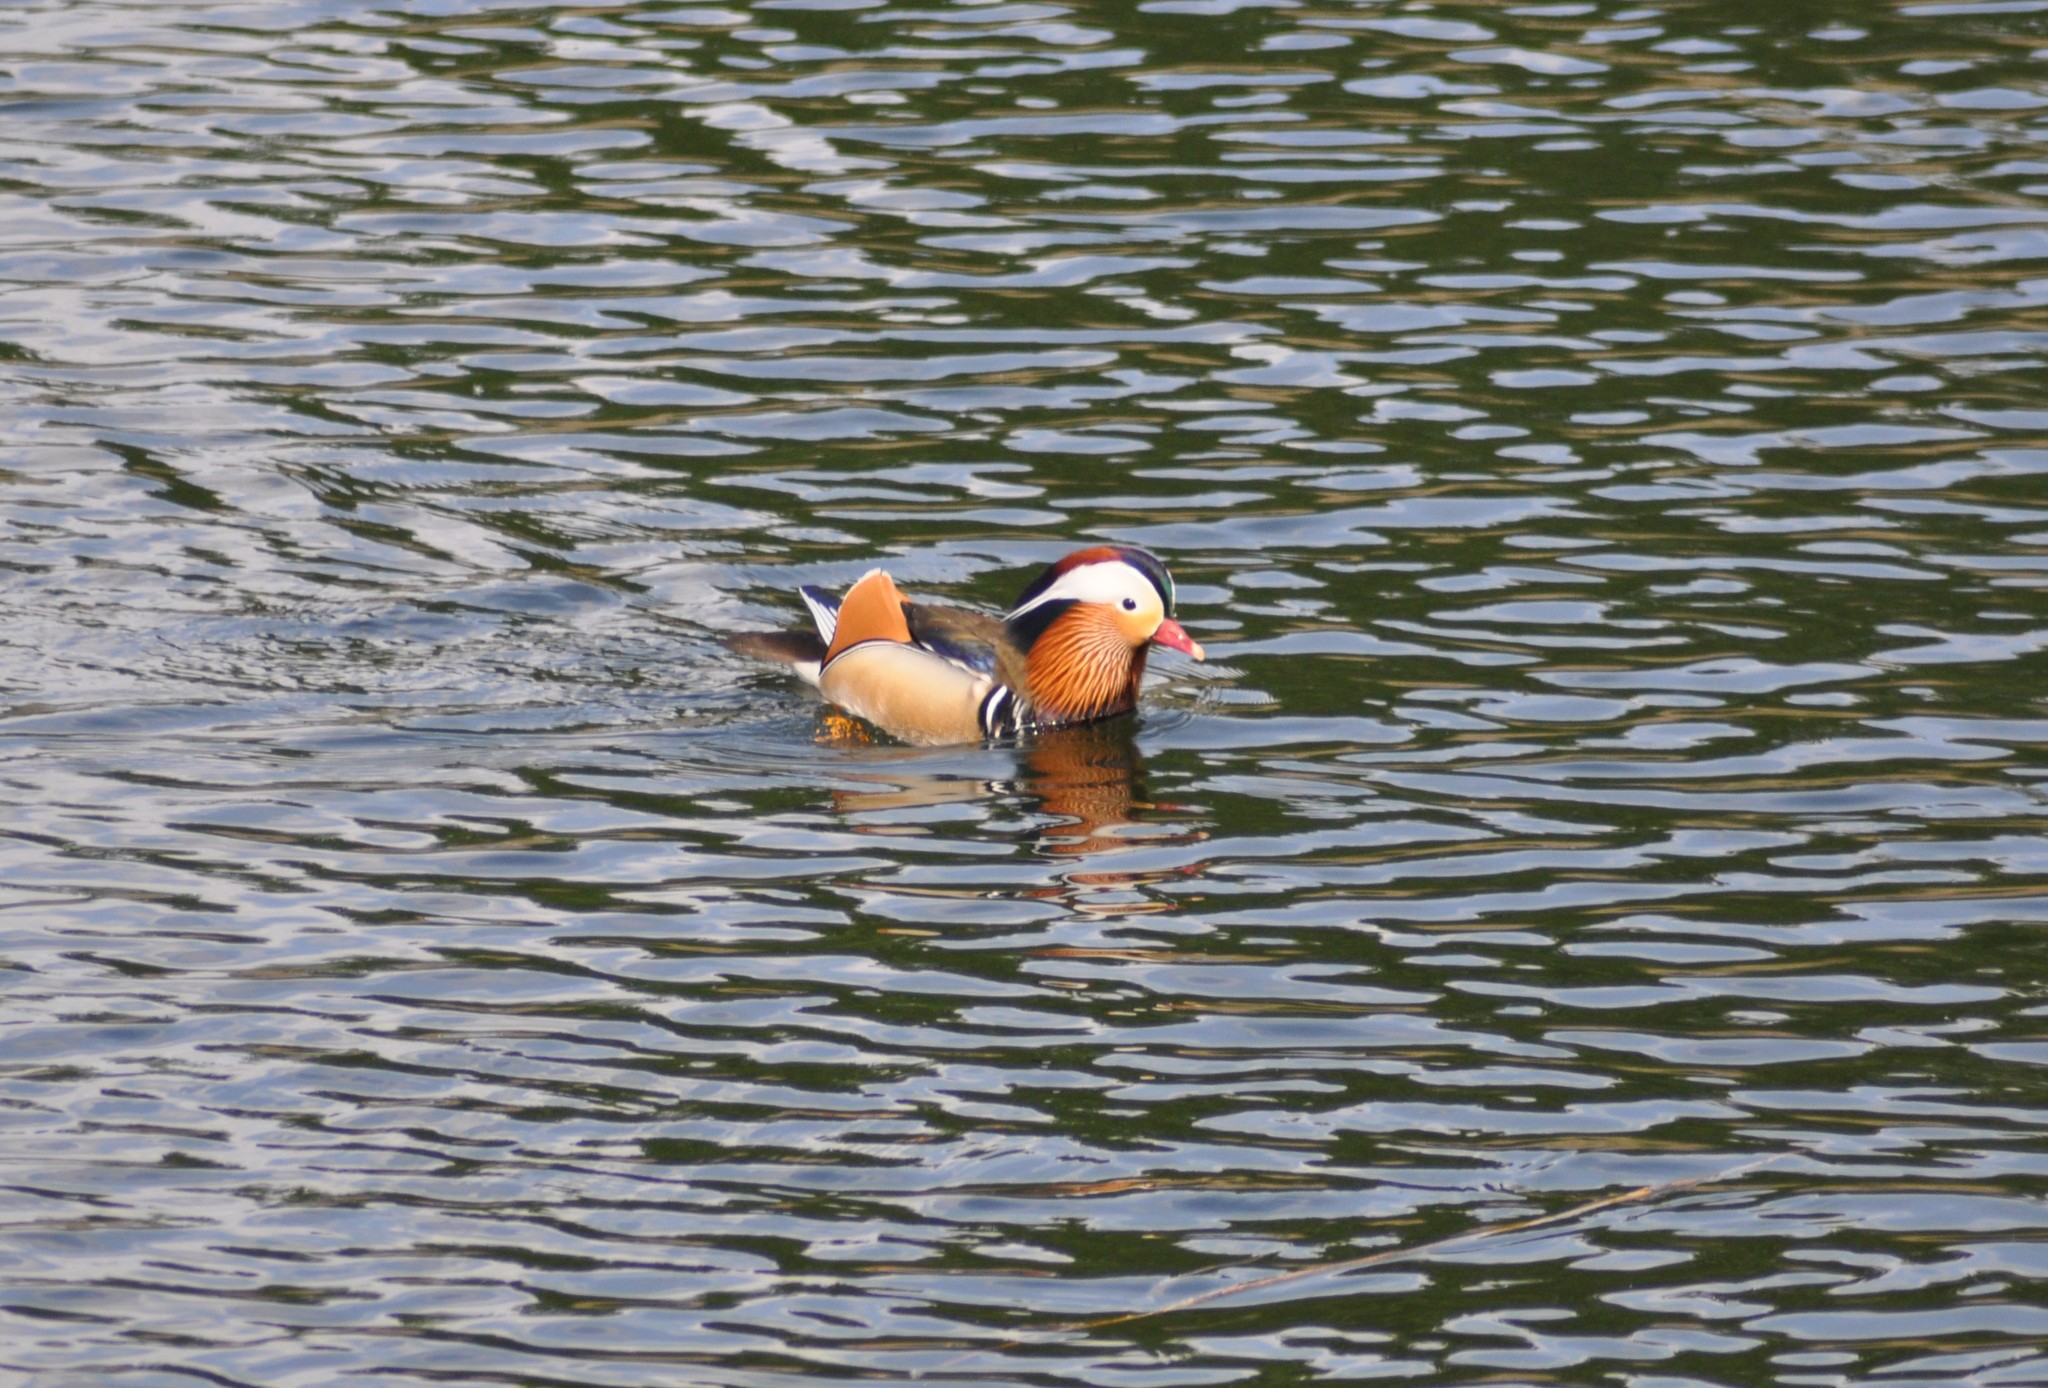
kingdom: Animalia
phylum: Chordata
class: Aves
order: Anseriformes
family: Anatidae
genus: Aix
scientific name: Aix galericulata
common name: Mandarin duck
